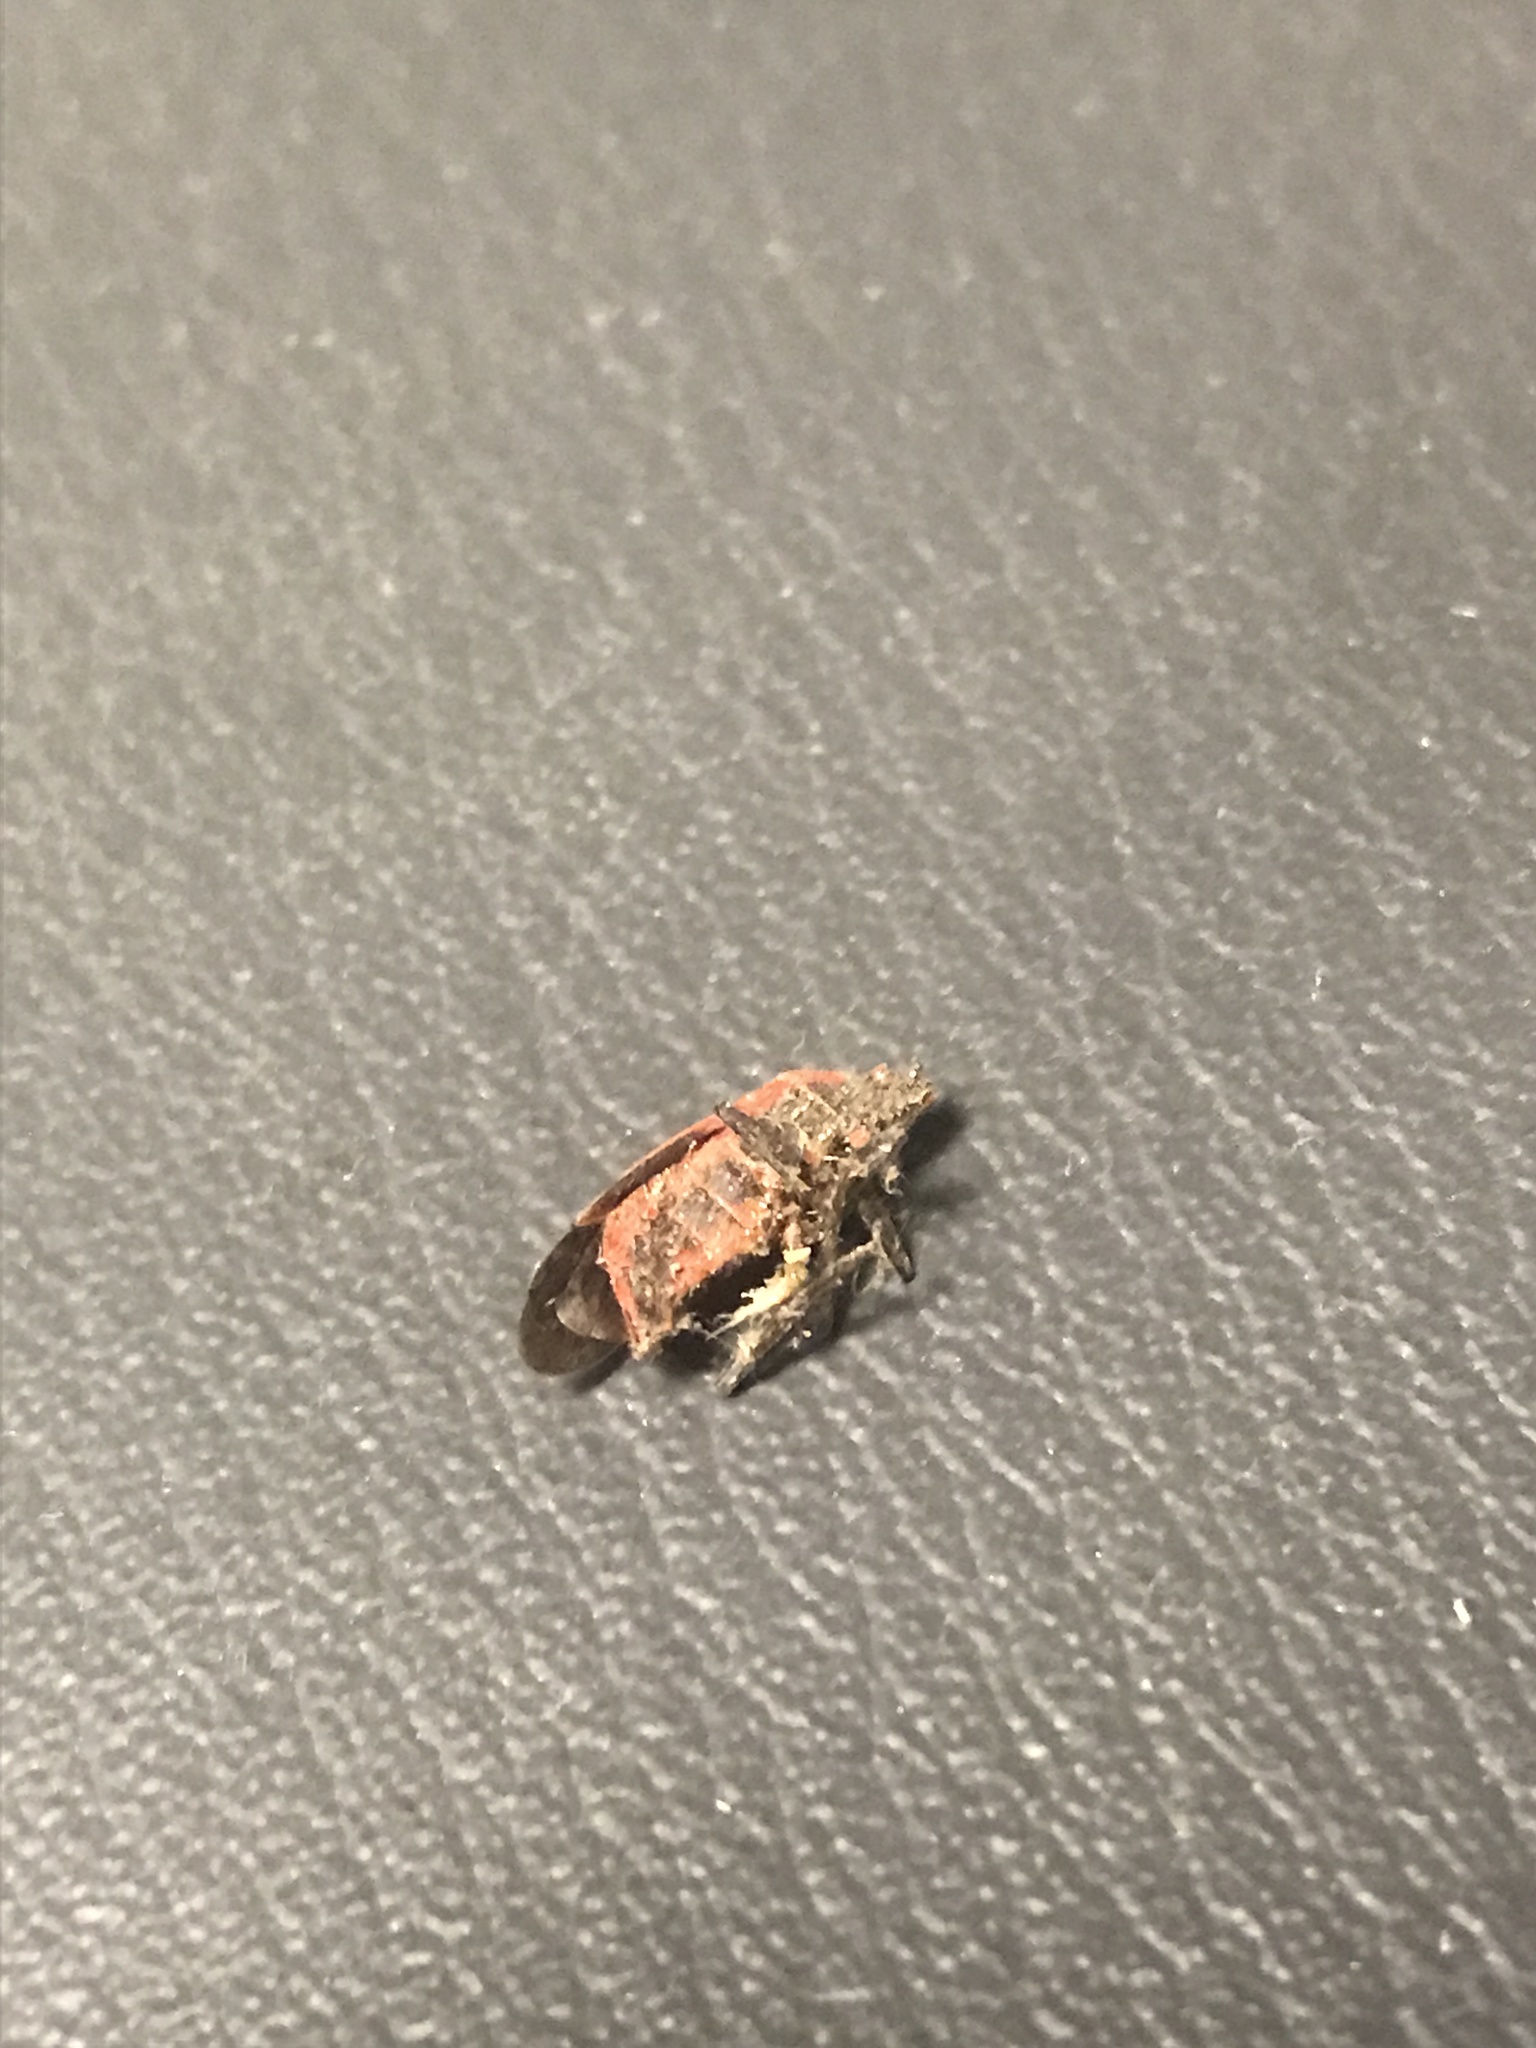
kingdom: Animalia
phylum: Arthropoda
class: Insecta
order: Hemiptera
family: Rhopalidae
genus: Boisea
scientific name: Boisea trivittata
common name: Boxelder bug
